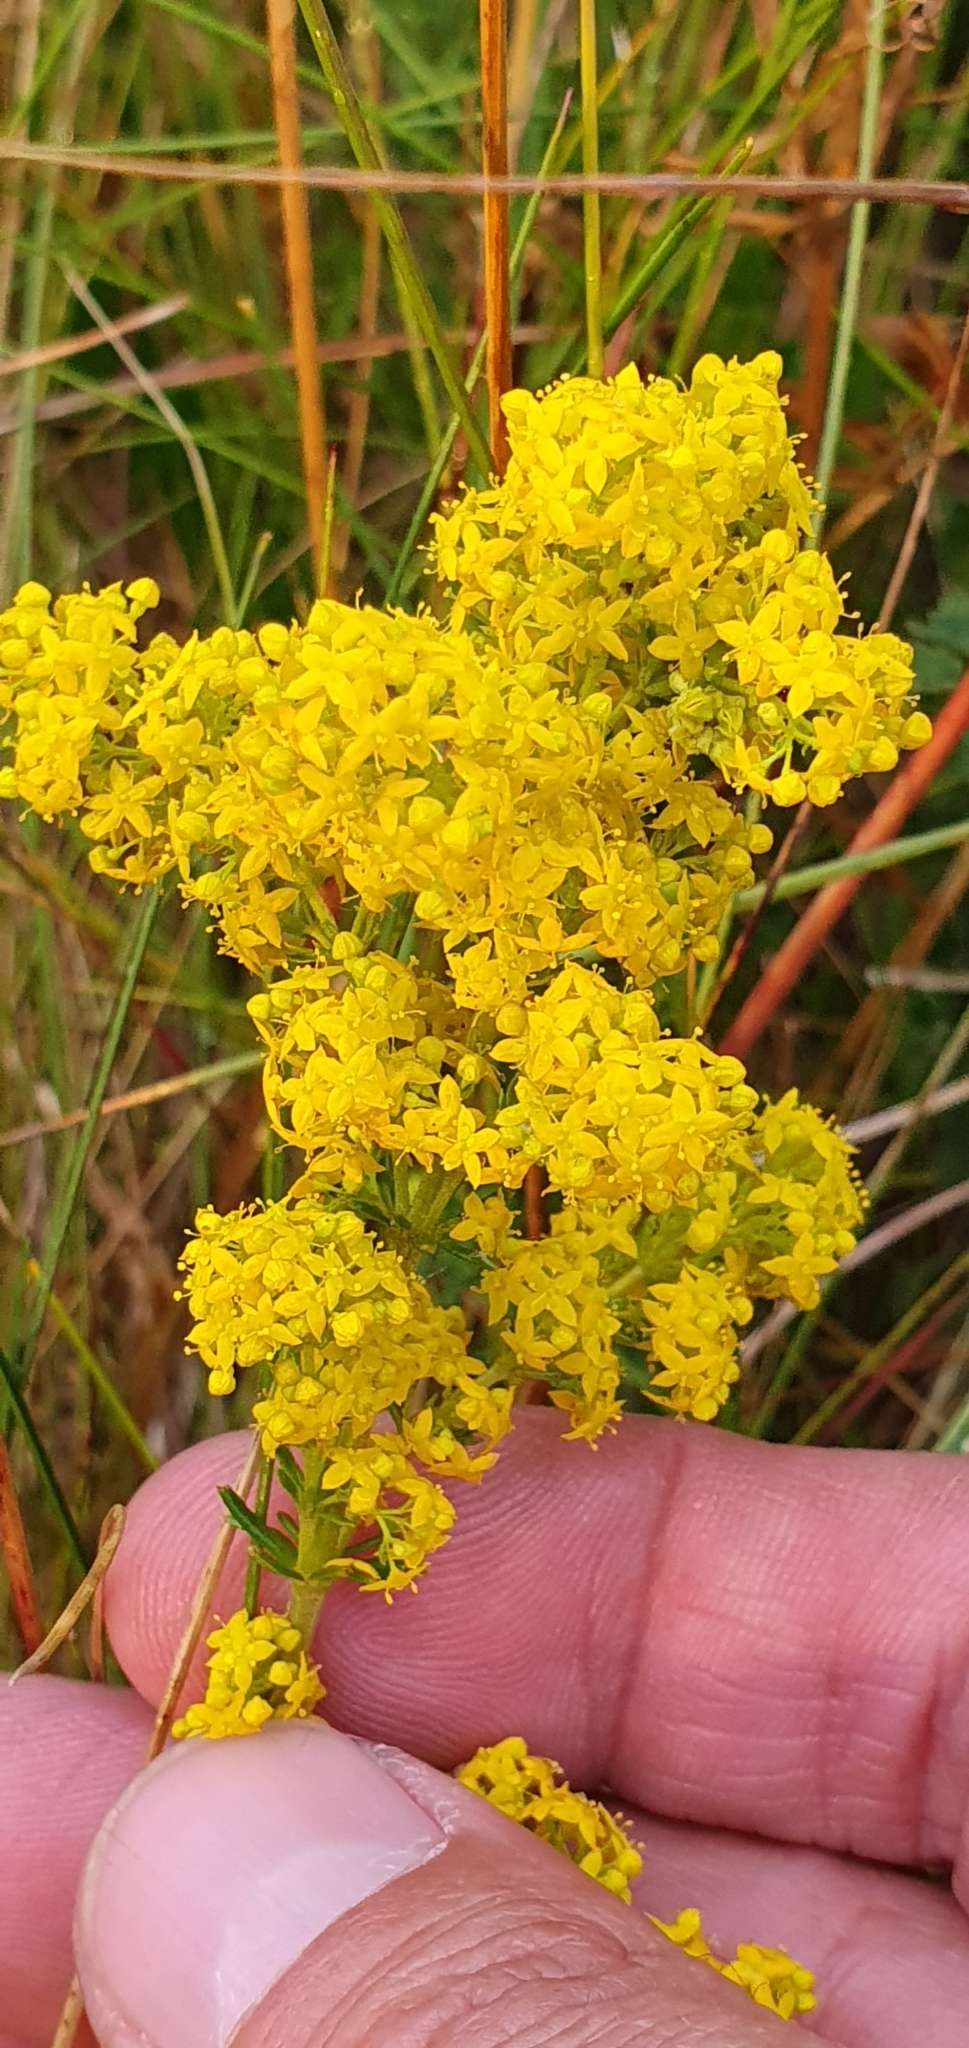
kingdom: Plantae
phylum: Tracheophyta
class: Magnoliopsida
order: Gentianales
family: Rubiaceae
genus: Galium
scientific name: Galium verum
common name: Lady's bedstraw
